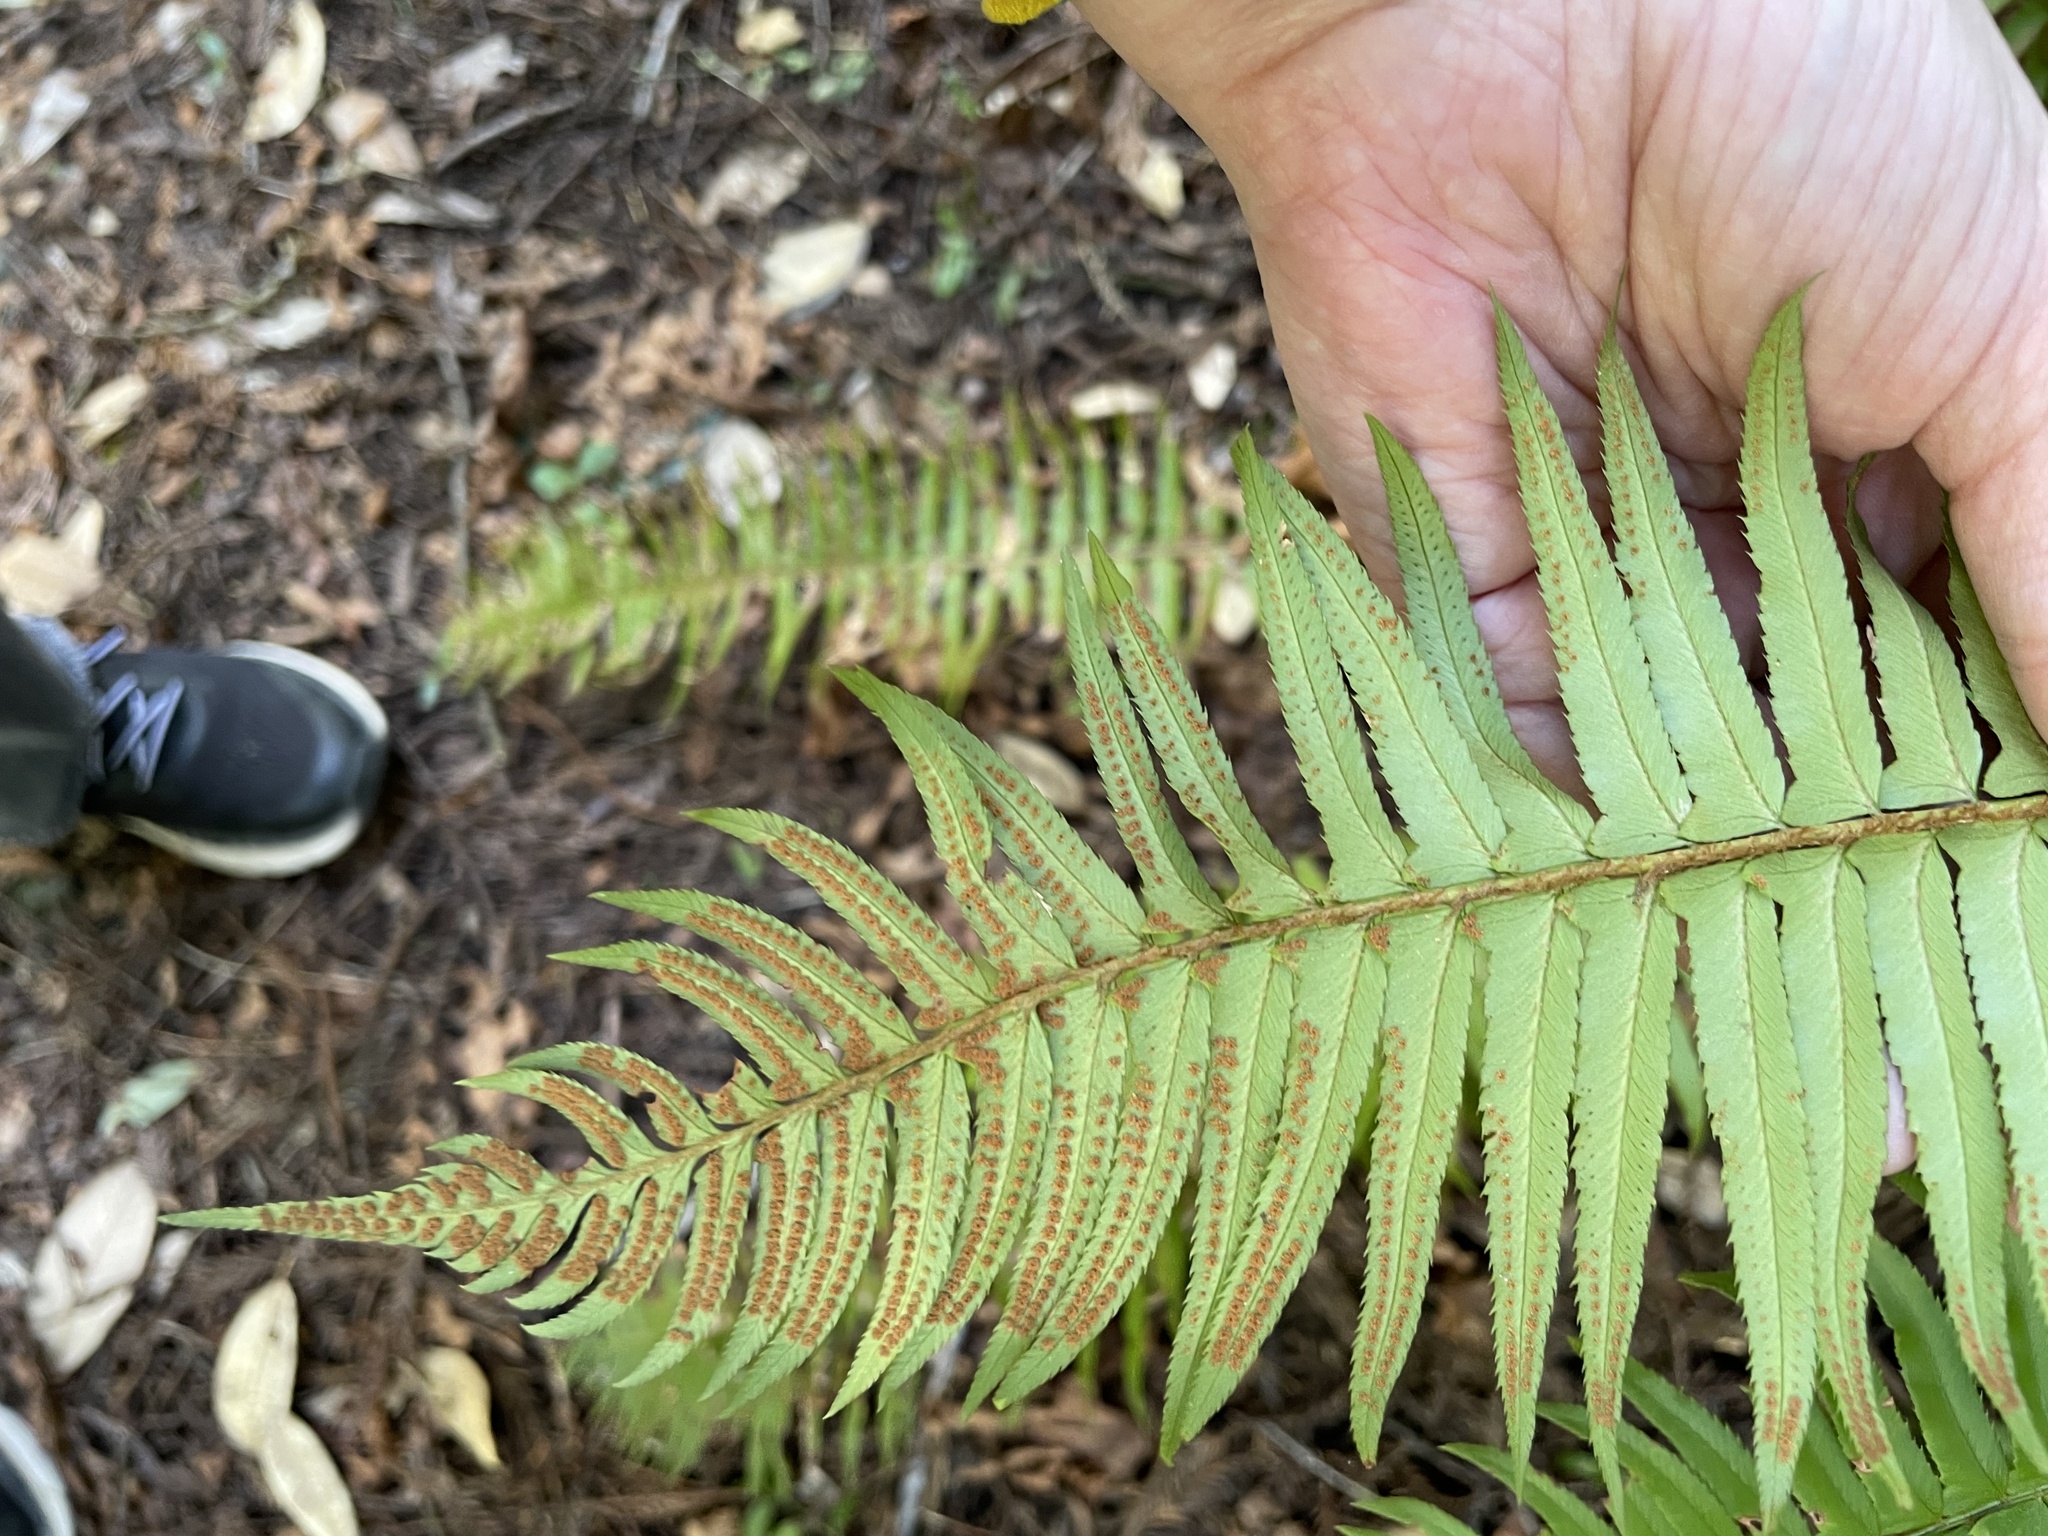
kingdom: Plantae
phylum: Tracheophyta
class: Polypodiopsida
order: Polypodiales
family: Dryopteridaceae
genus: Polystichum
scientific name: Polystichum munitum
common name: Western sword-fern
